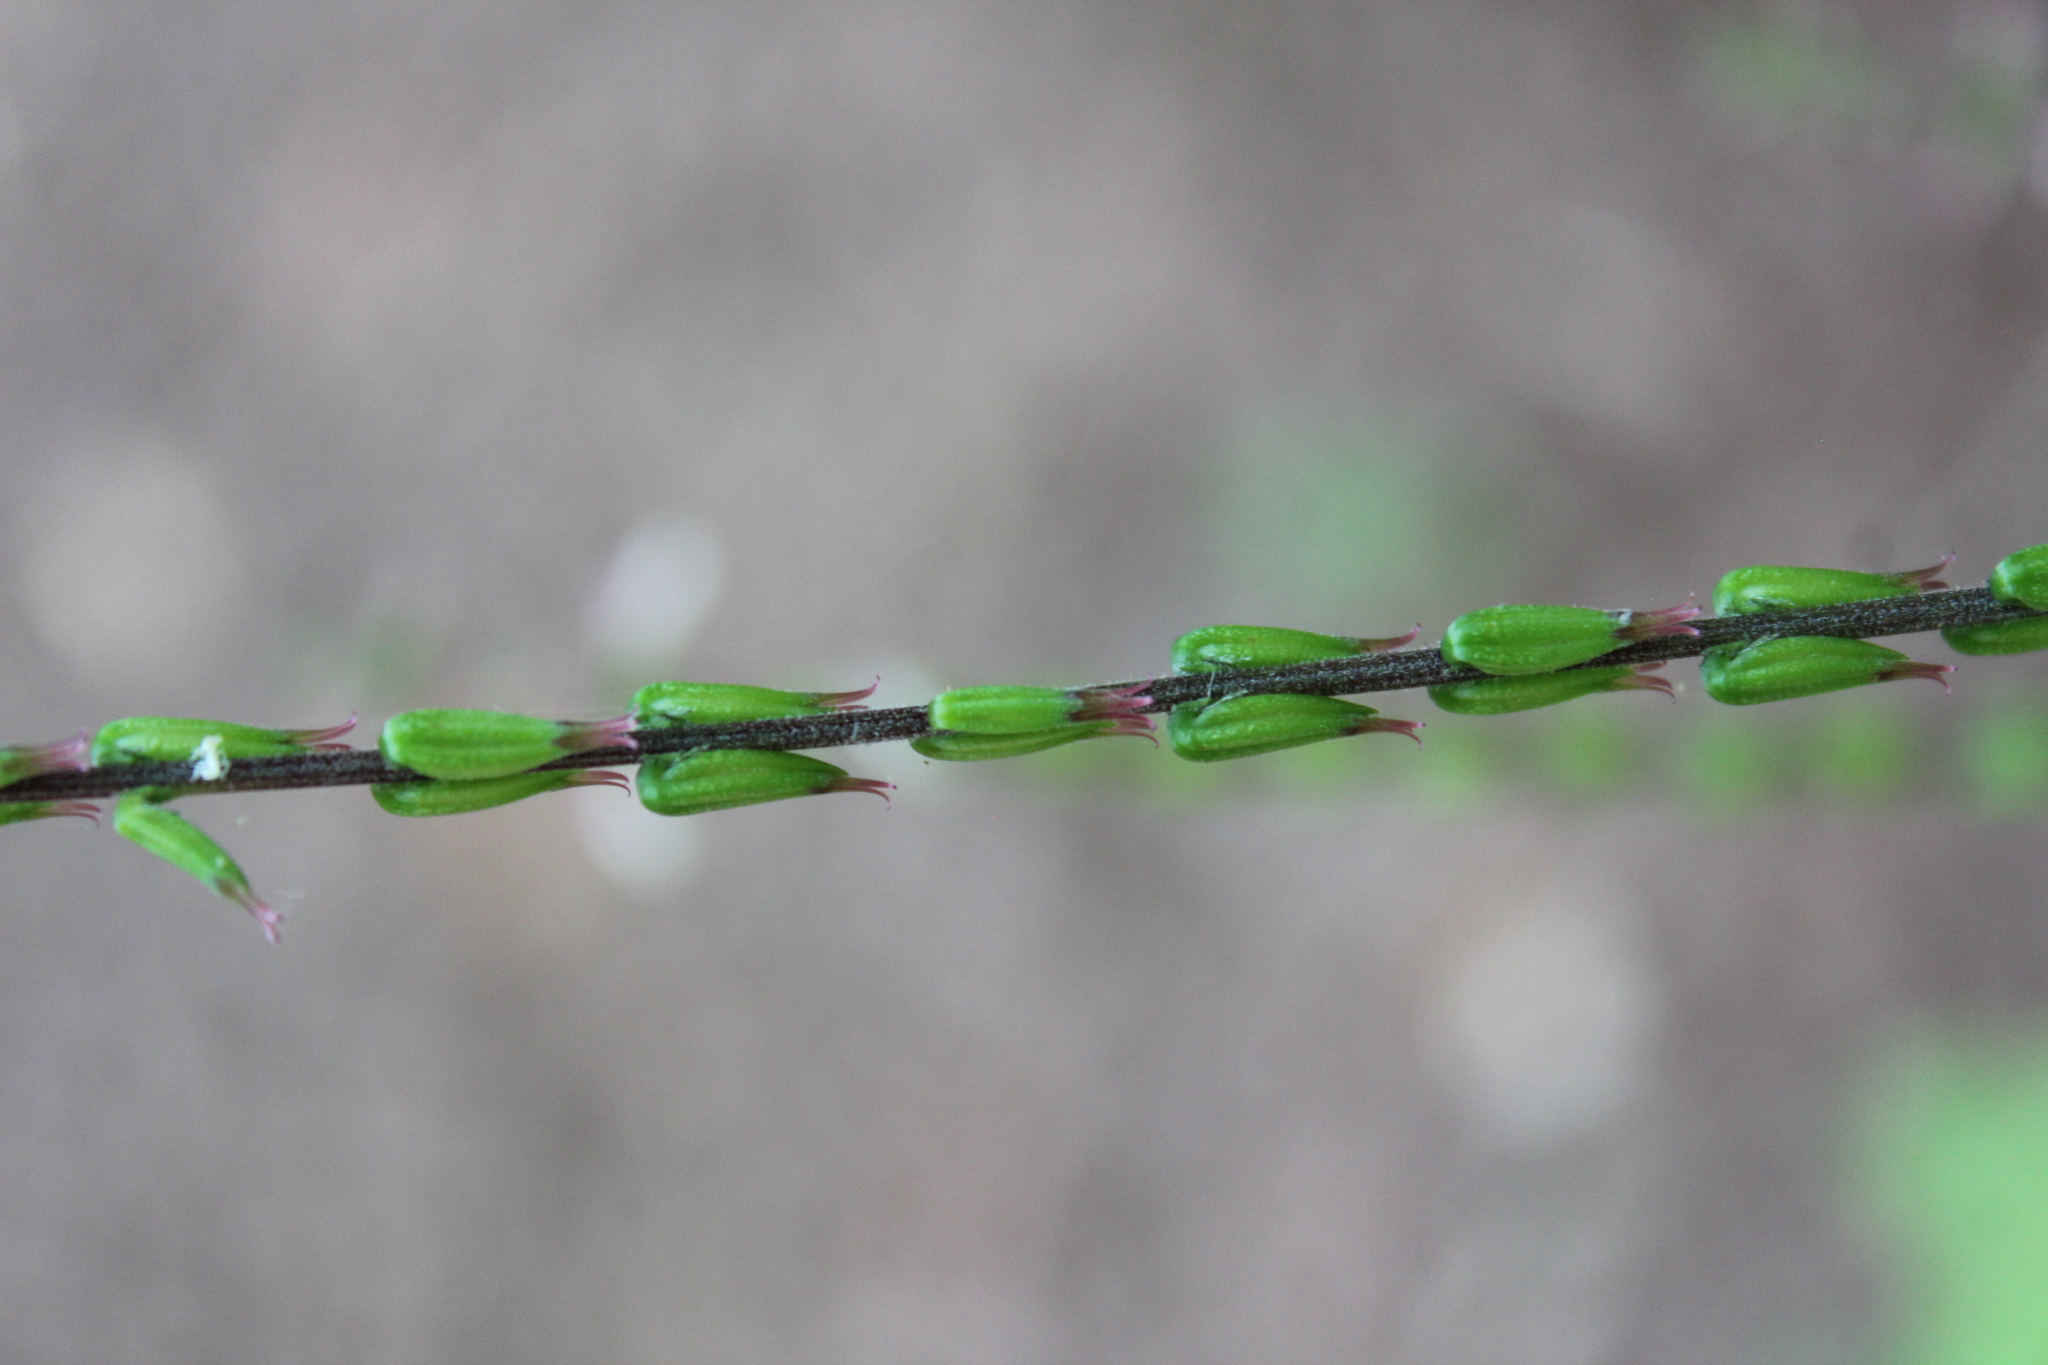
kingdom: Plantae
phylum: Tracheophyta
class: Magnoliopsida
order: Lamiales
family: Phrymaceae
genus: Phryma
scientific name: Phryma leptostachya
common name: American lopseed
